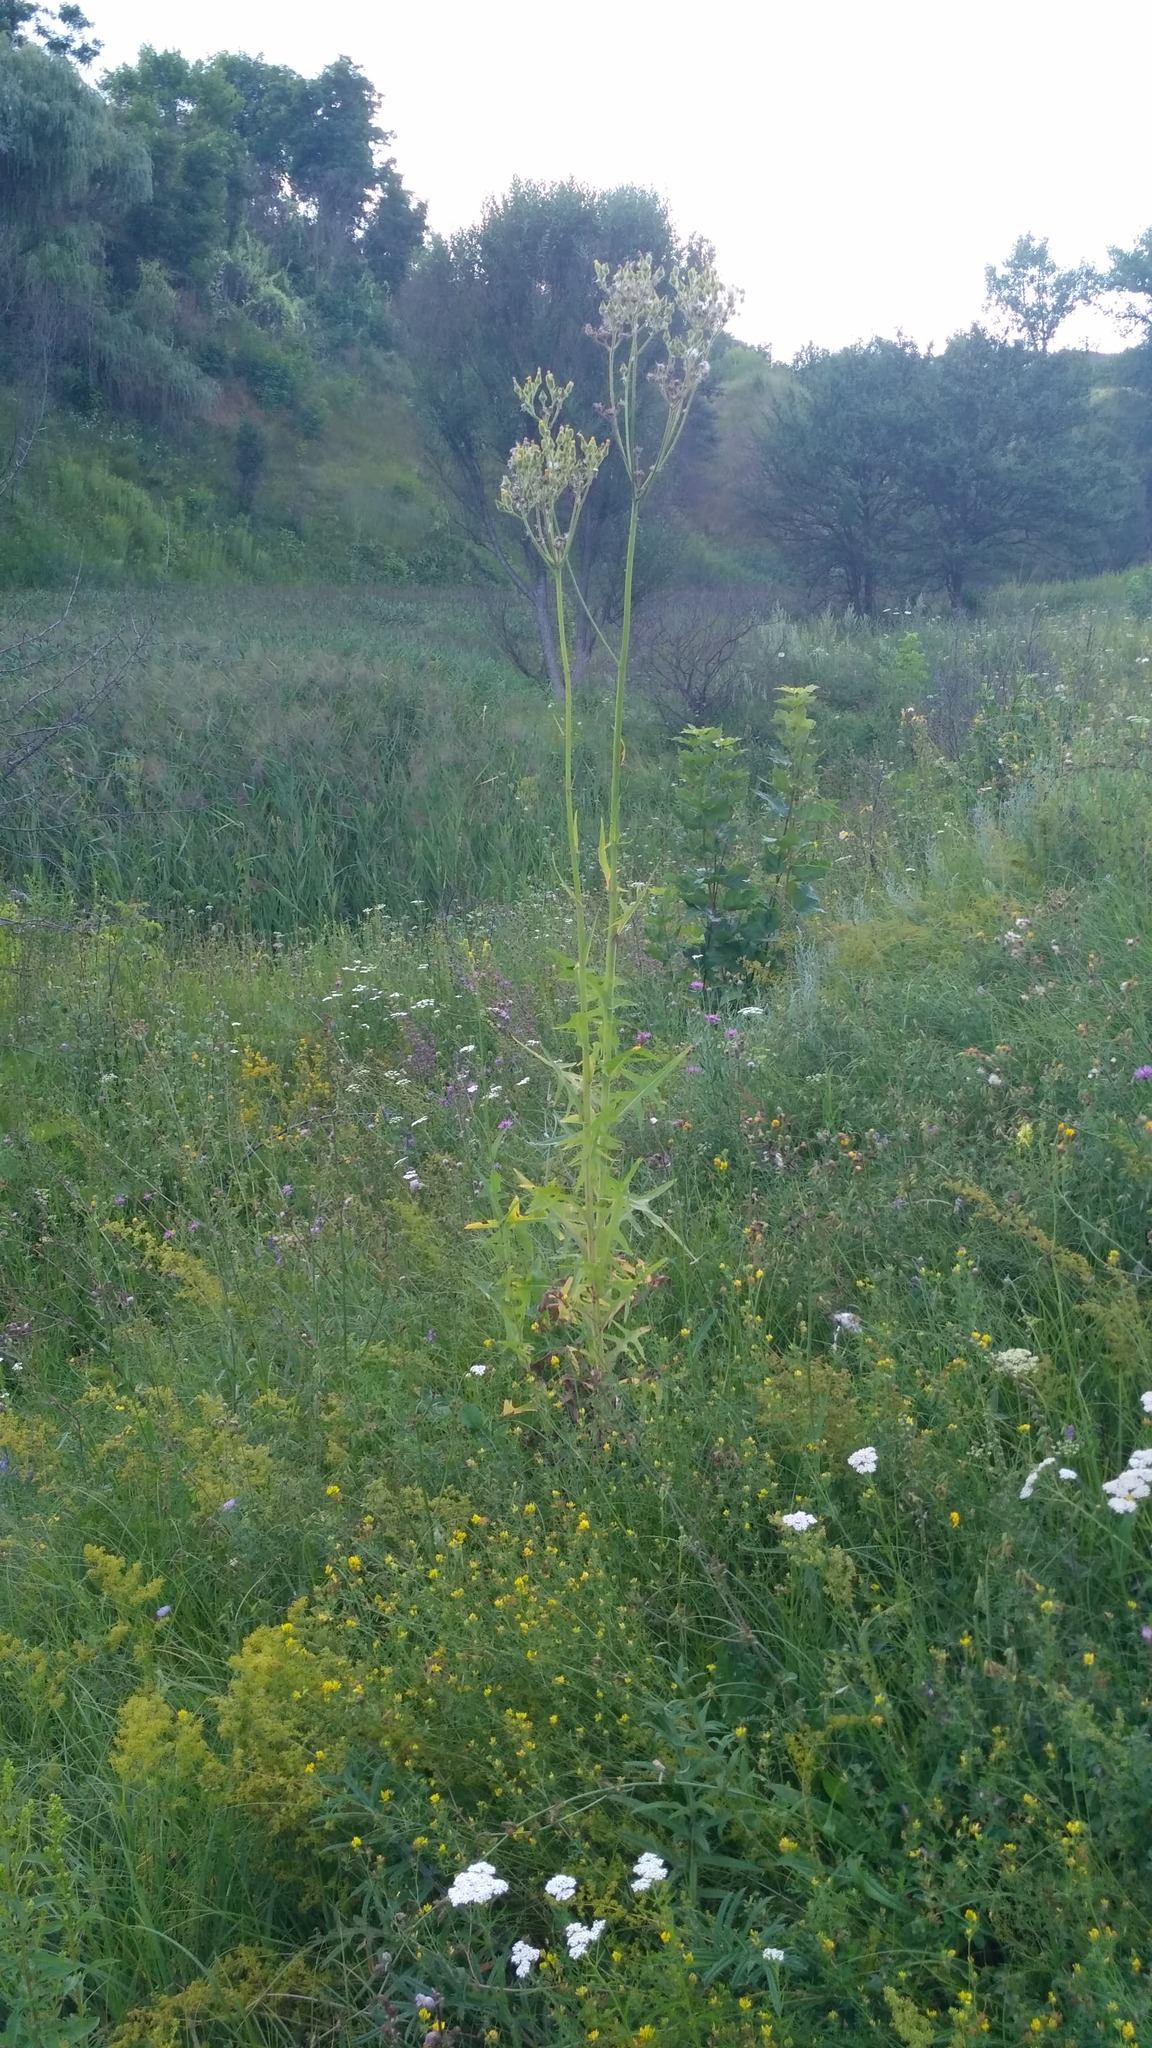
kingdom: Plantae
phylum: Tracheophyta
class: Magnoliopsida
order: Asterales
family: Asteraceae
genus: Sonchus
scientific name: Sonchus palustris
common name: Marsh sow-thistle
